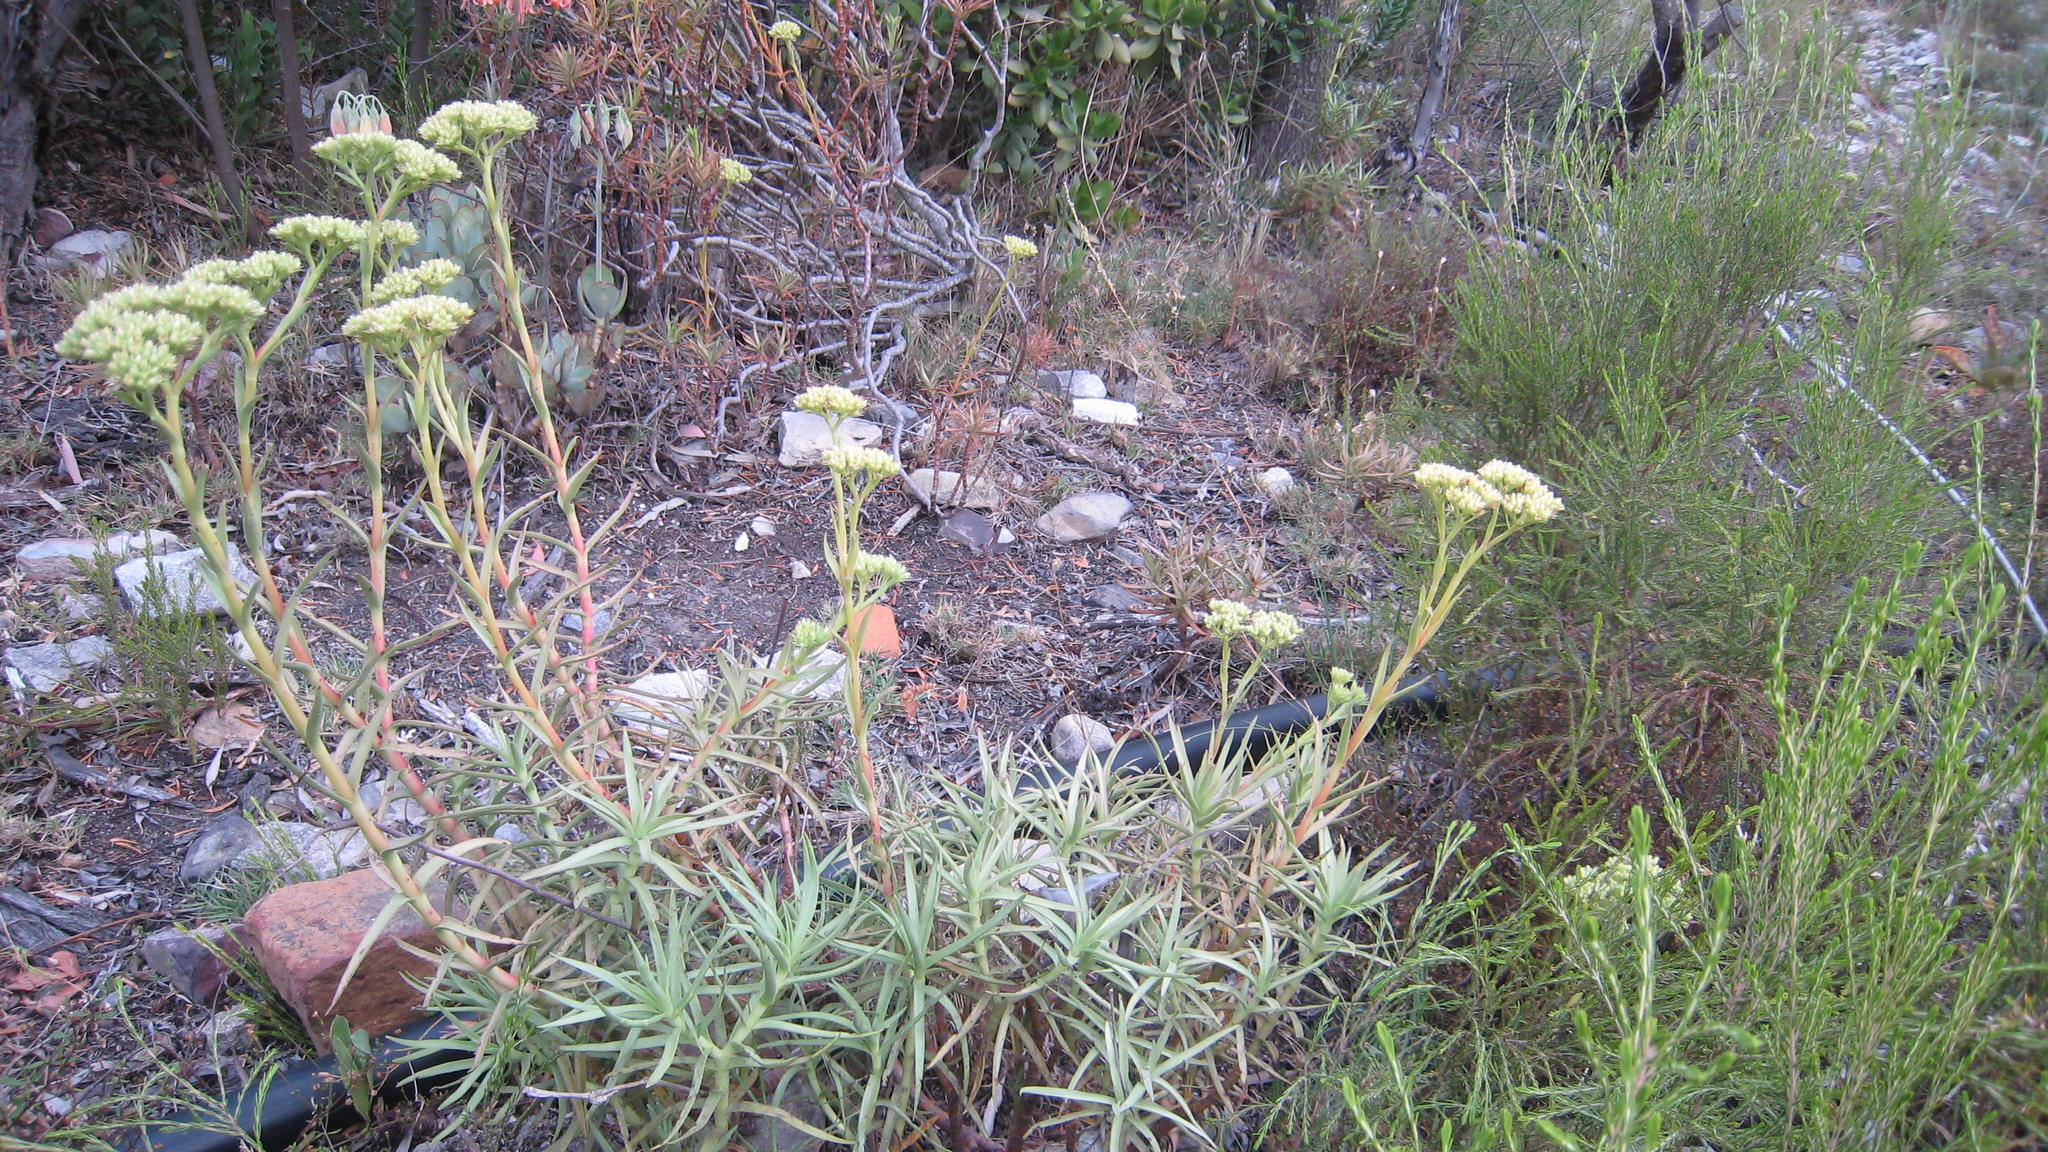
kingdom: Plantae
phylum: Tracheophyta
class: Magnoliopsida
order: Saxifragales
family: Crassulaceae
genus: Crassula
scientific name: Crassula multiflora
